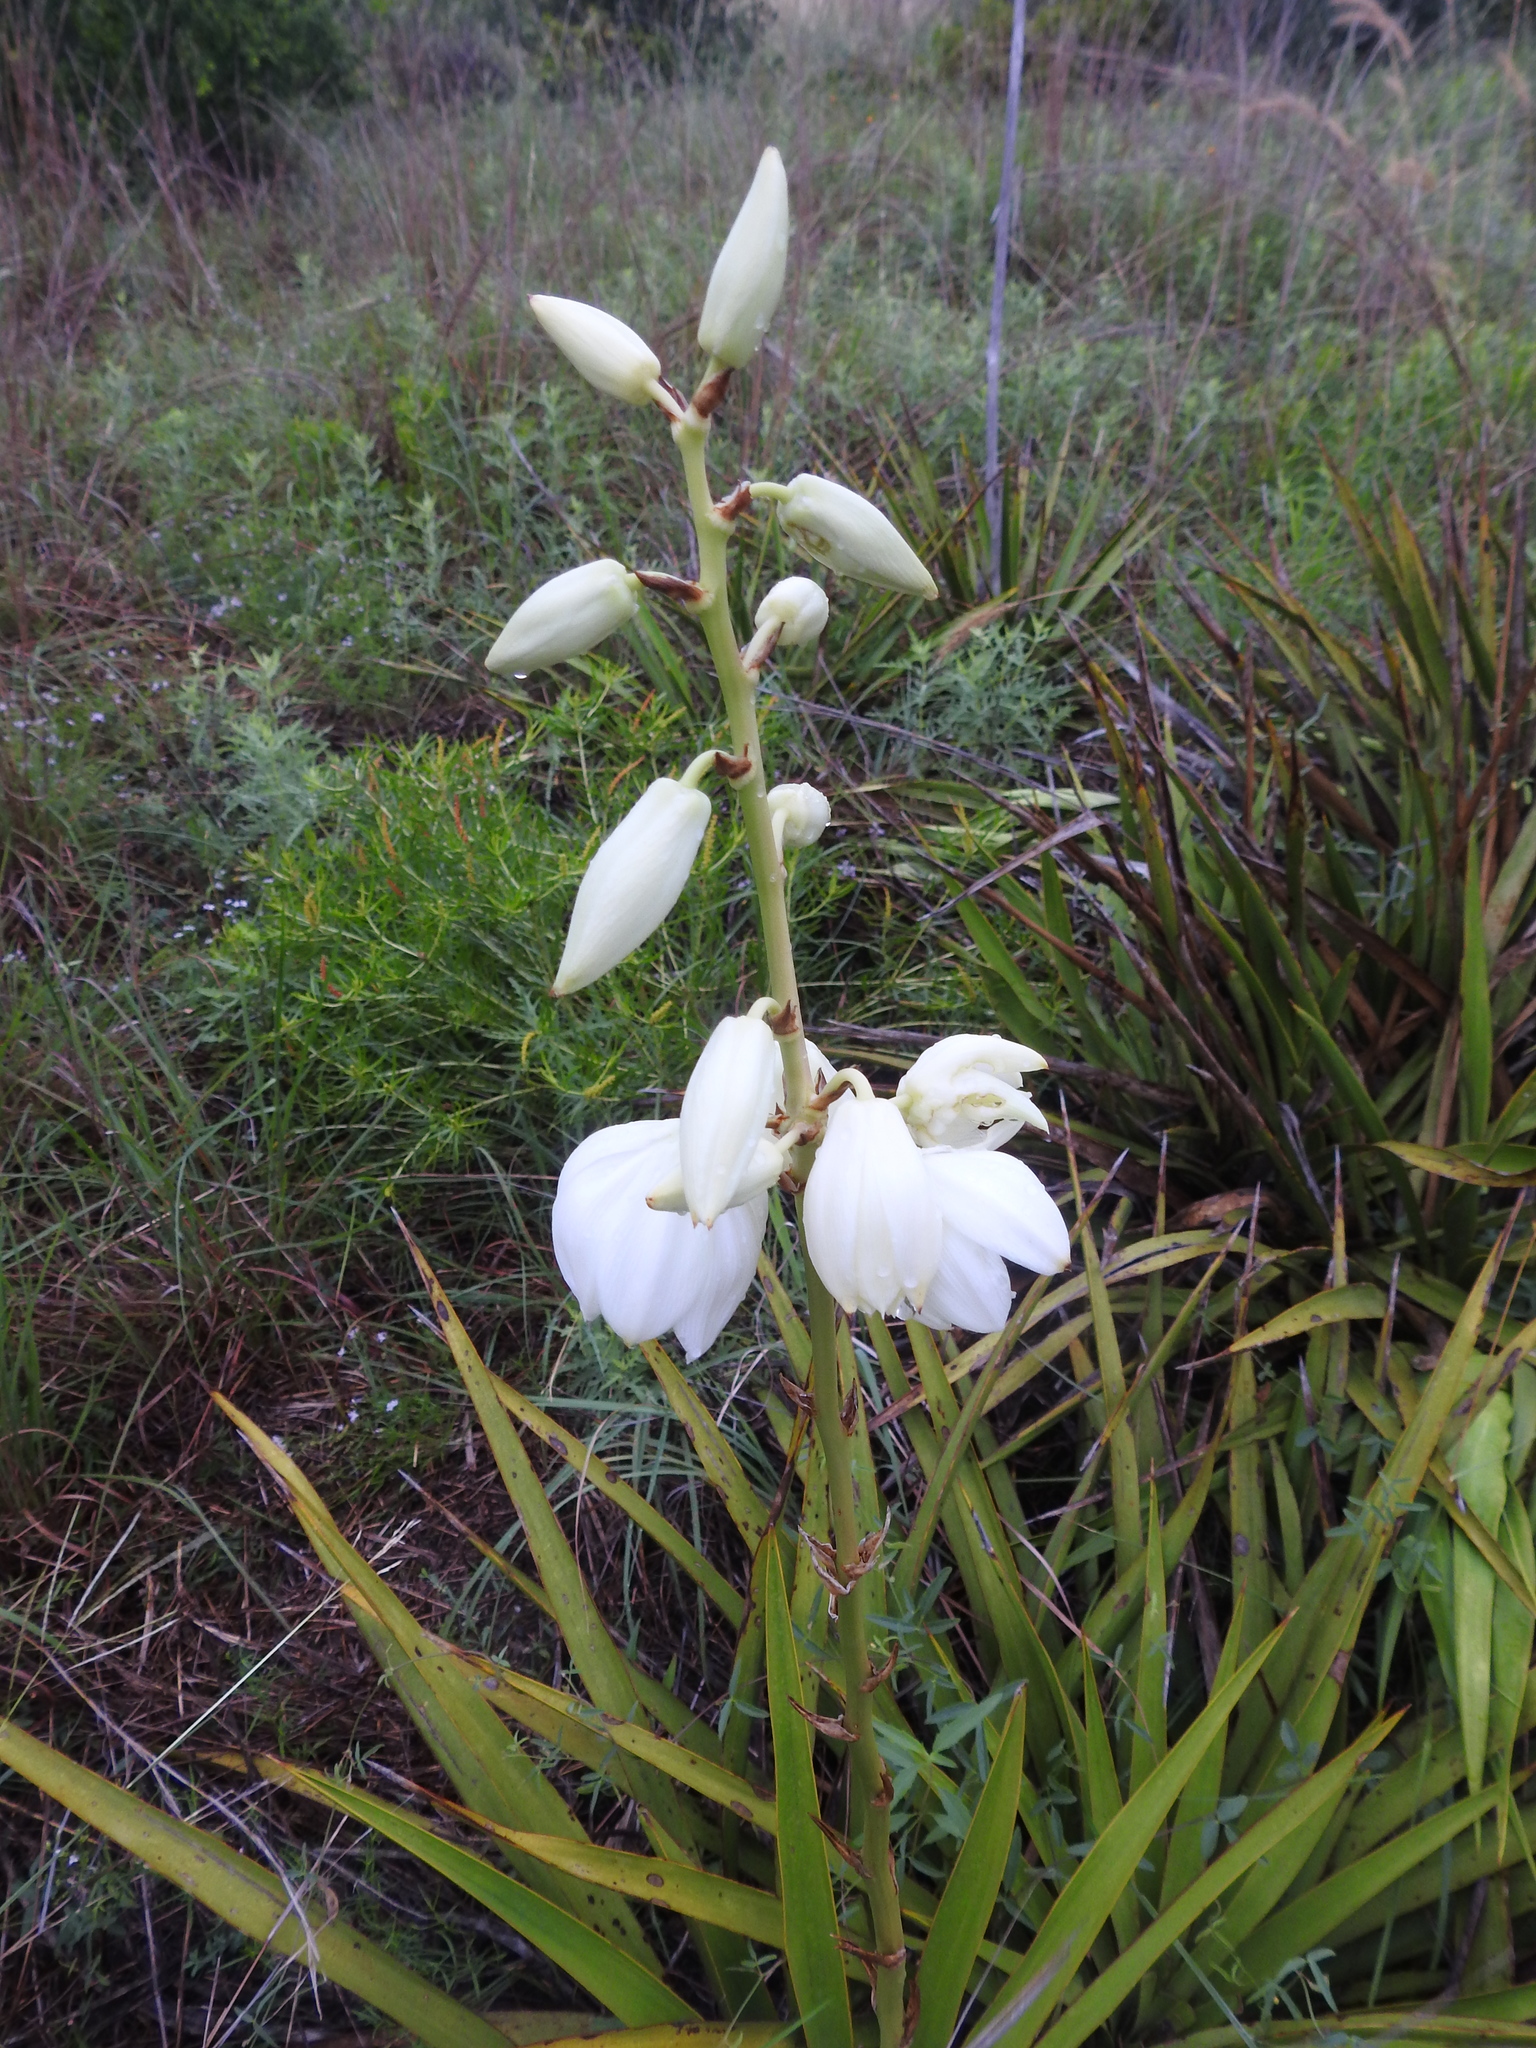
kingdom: Plantae
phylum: Tracheophyta
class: Liliopsida
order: Asparagales
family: Asparagaceae
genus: Yucca
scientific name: Yucca rupicola
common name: Twisted-leaf spanish-dagger
